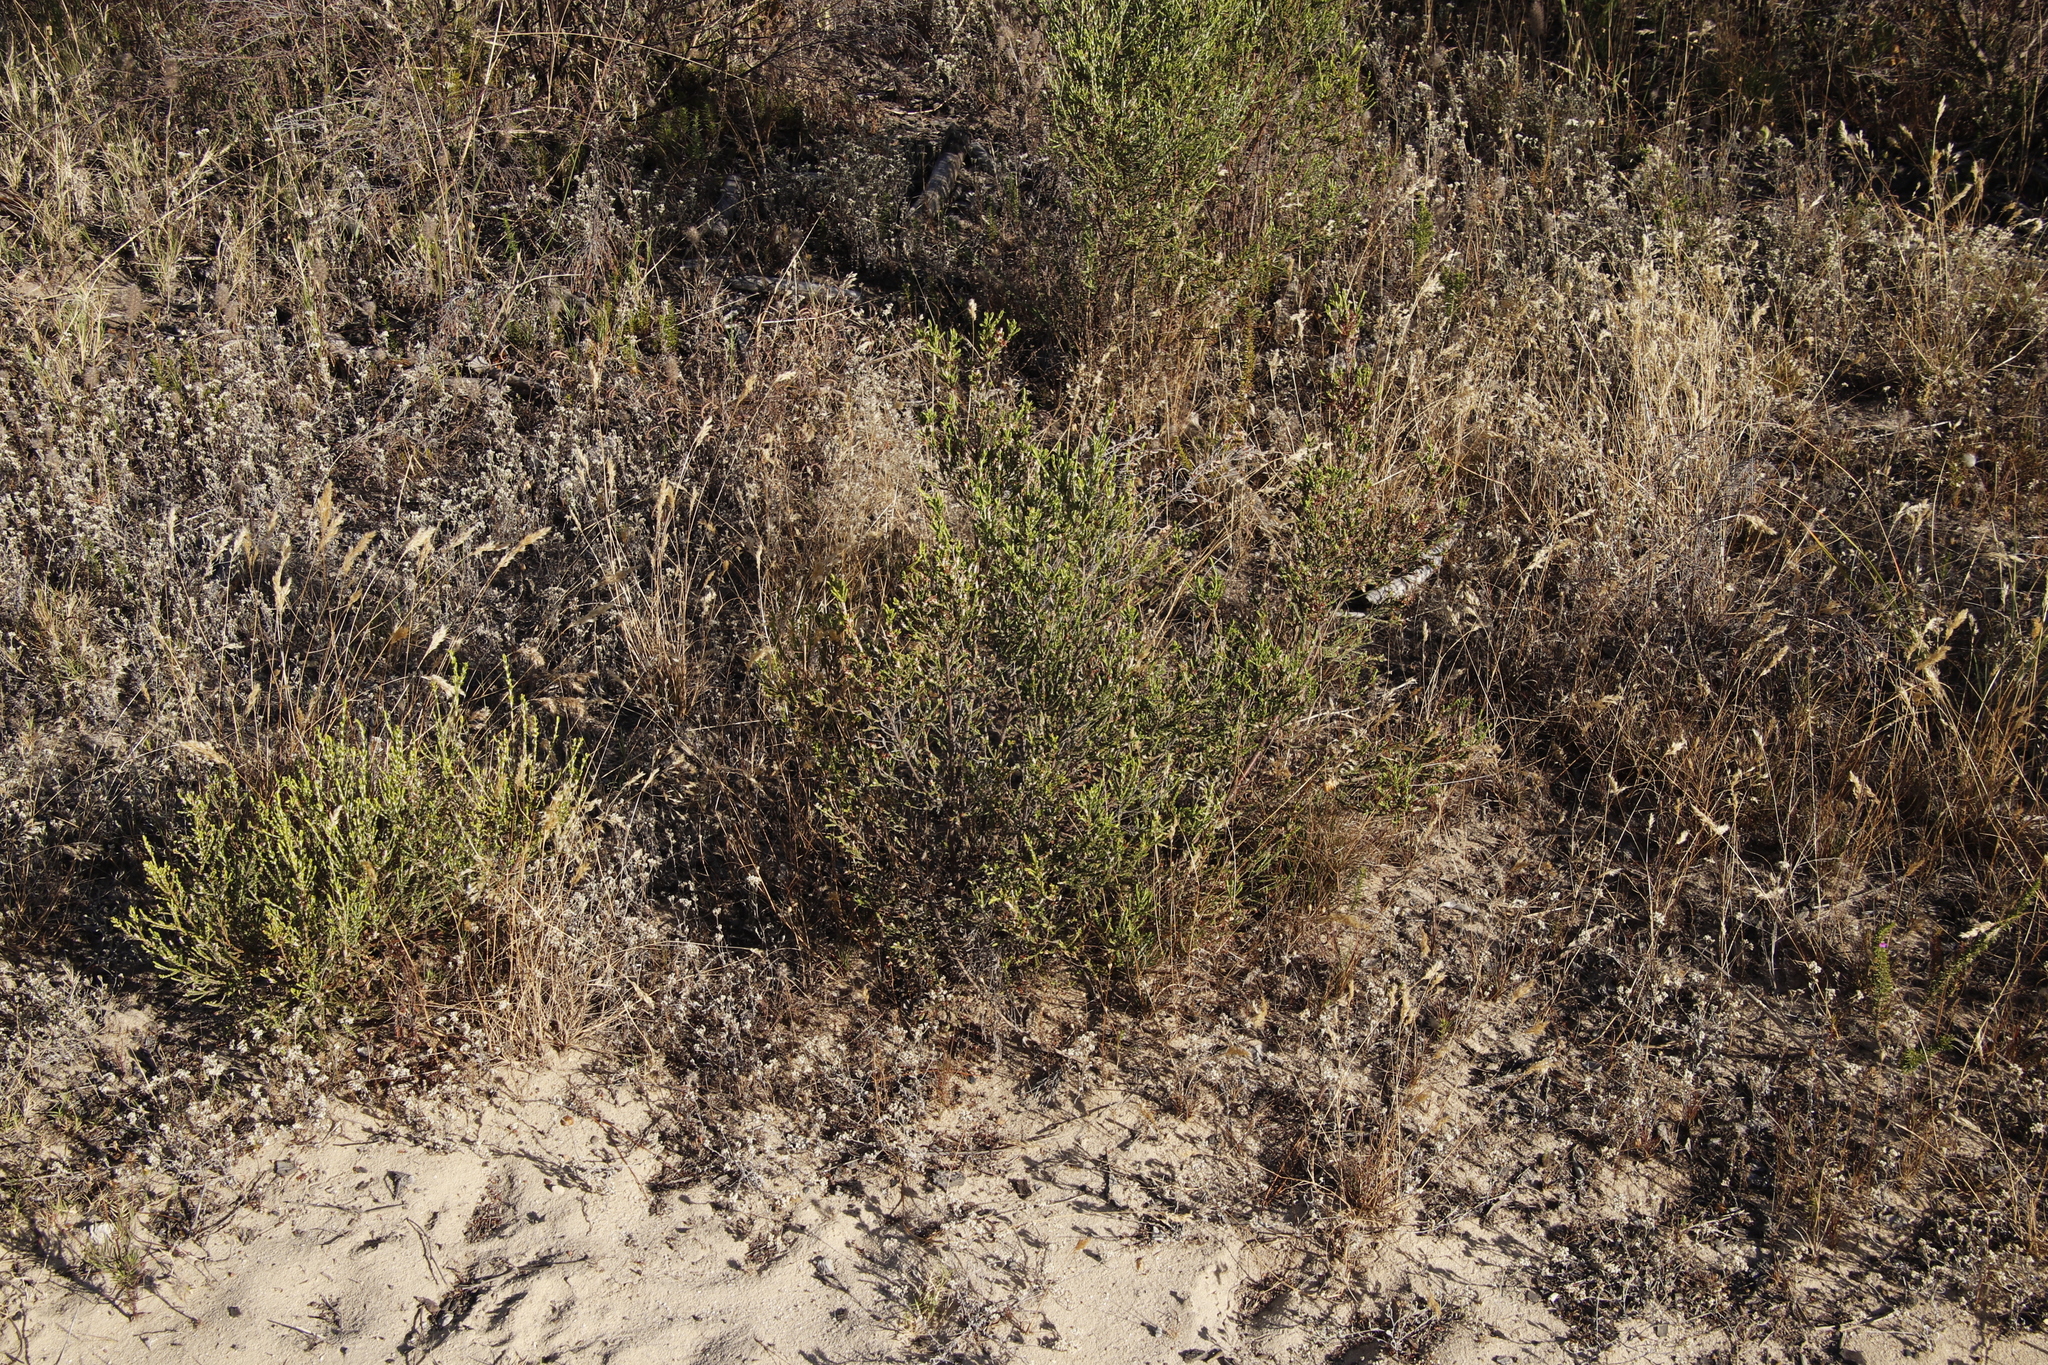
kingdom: Plantae
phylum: Tracheophyta
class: Magnoliopsida
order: Malvales
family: Thymelaeaceae
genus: Passerina
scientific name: Passerina corymbosa
